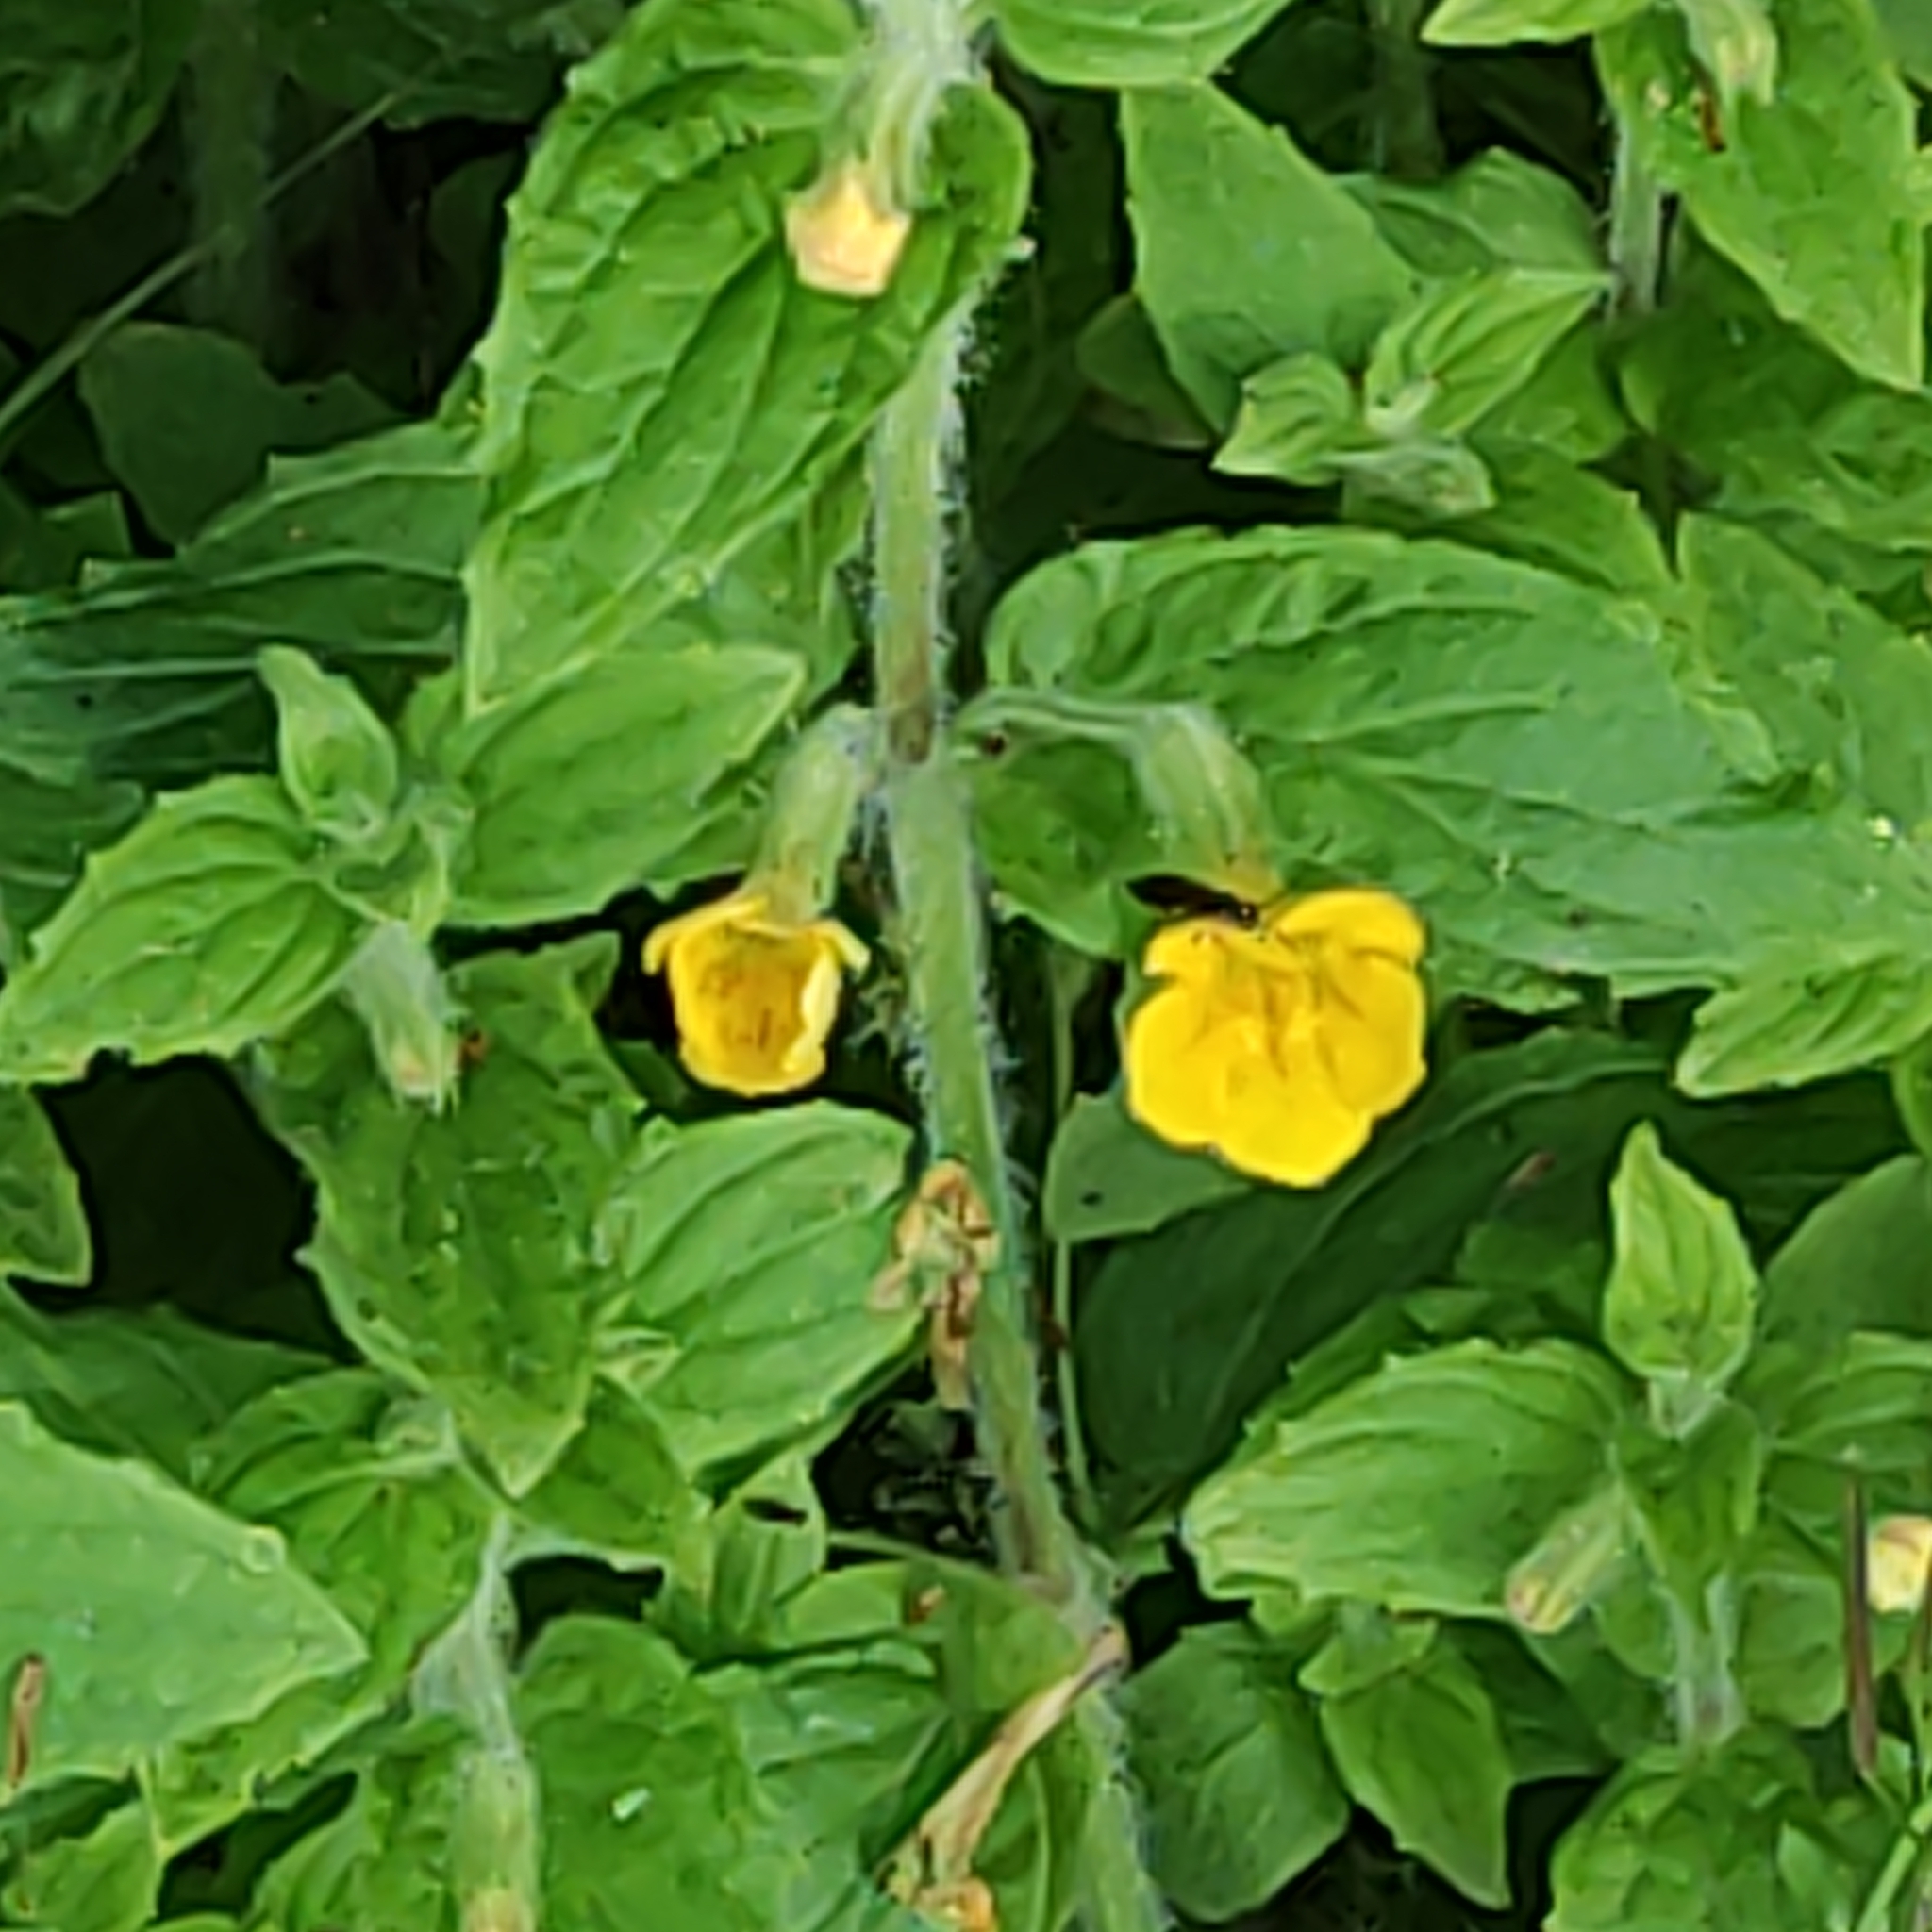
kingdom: Plantae
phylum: Tracheophyta
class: Magnoliopsida
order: Lamiales
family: Phrymaceae
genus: Erythranthe
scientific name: Erythranthe moschata
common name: Muskflower
